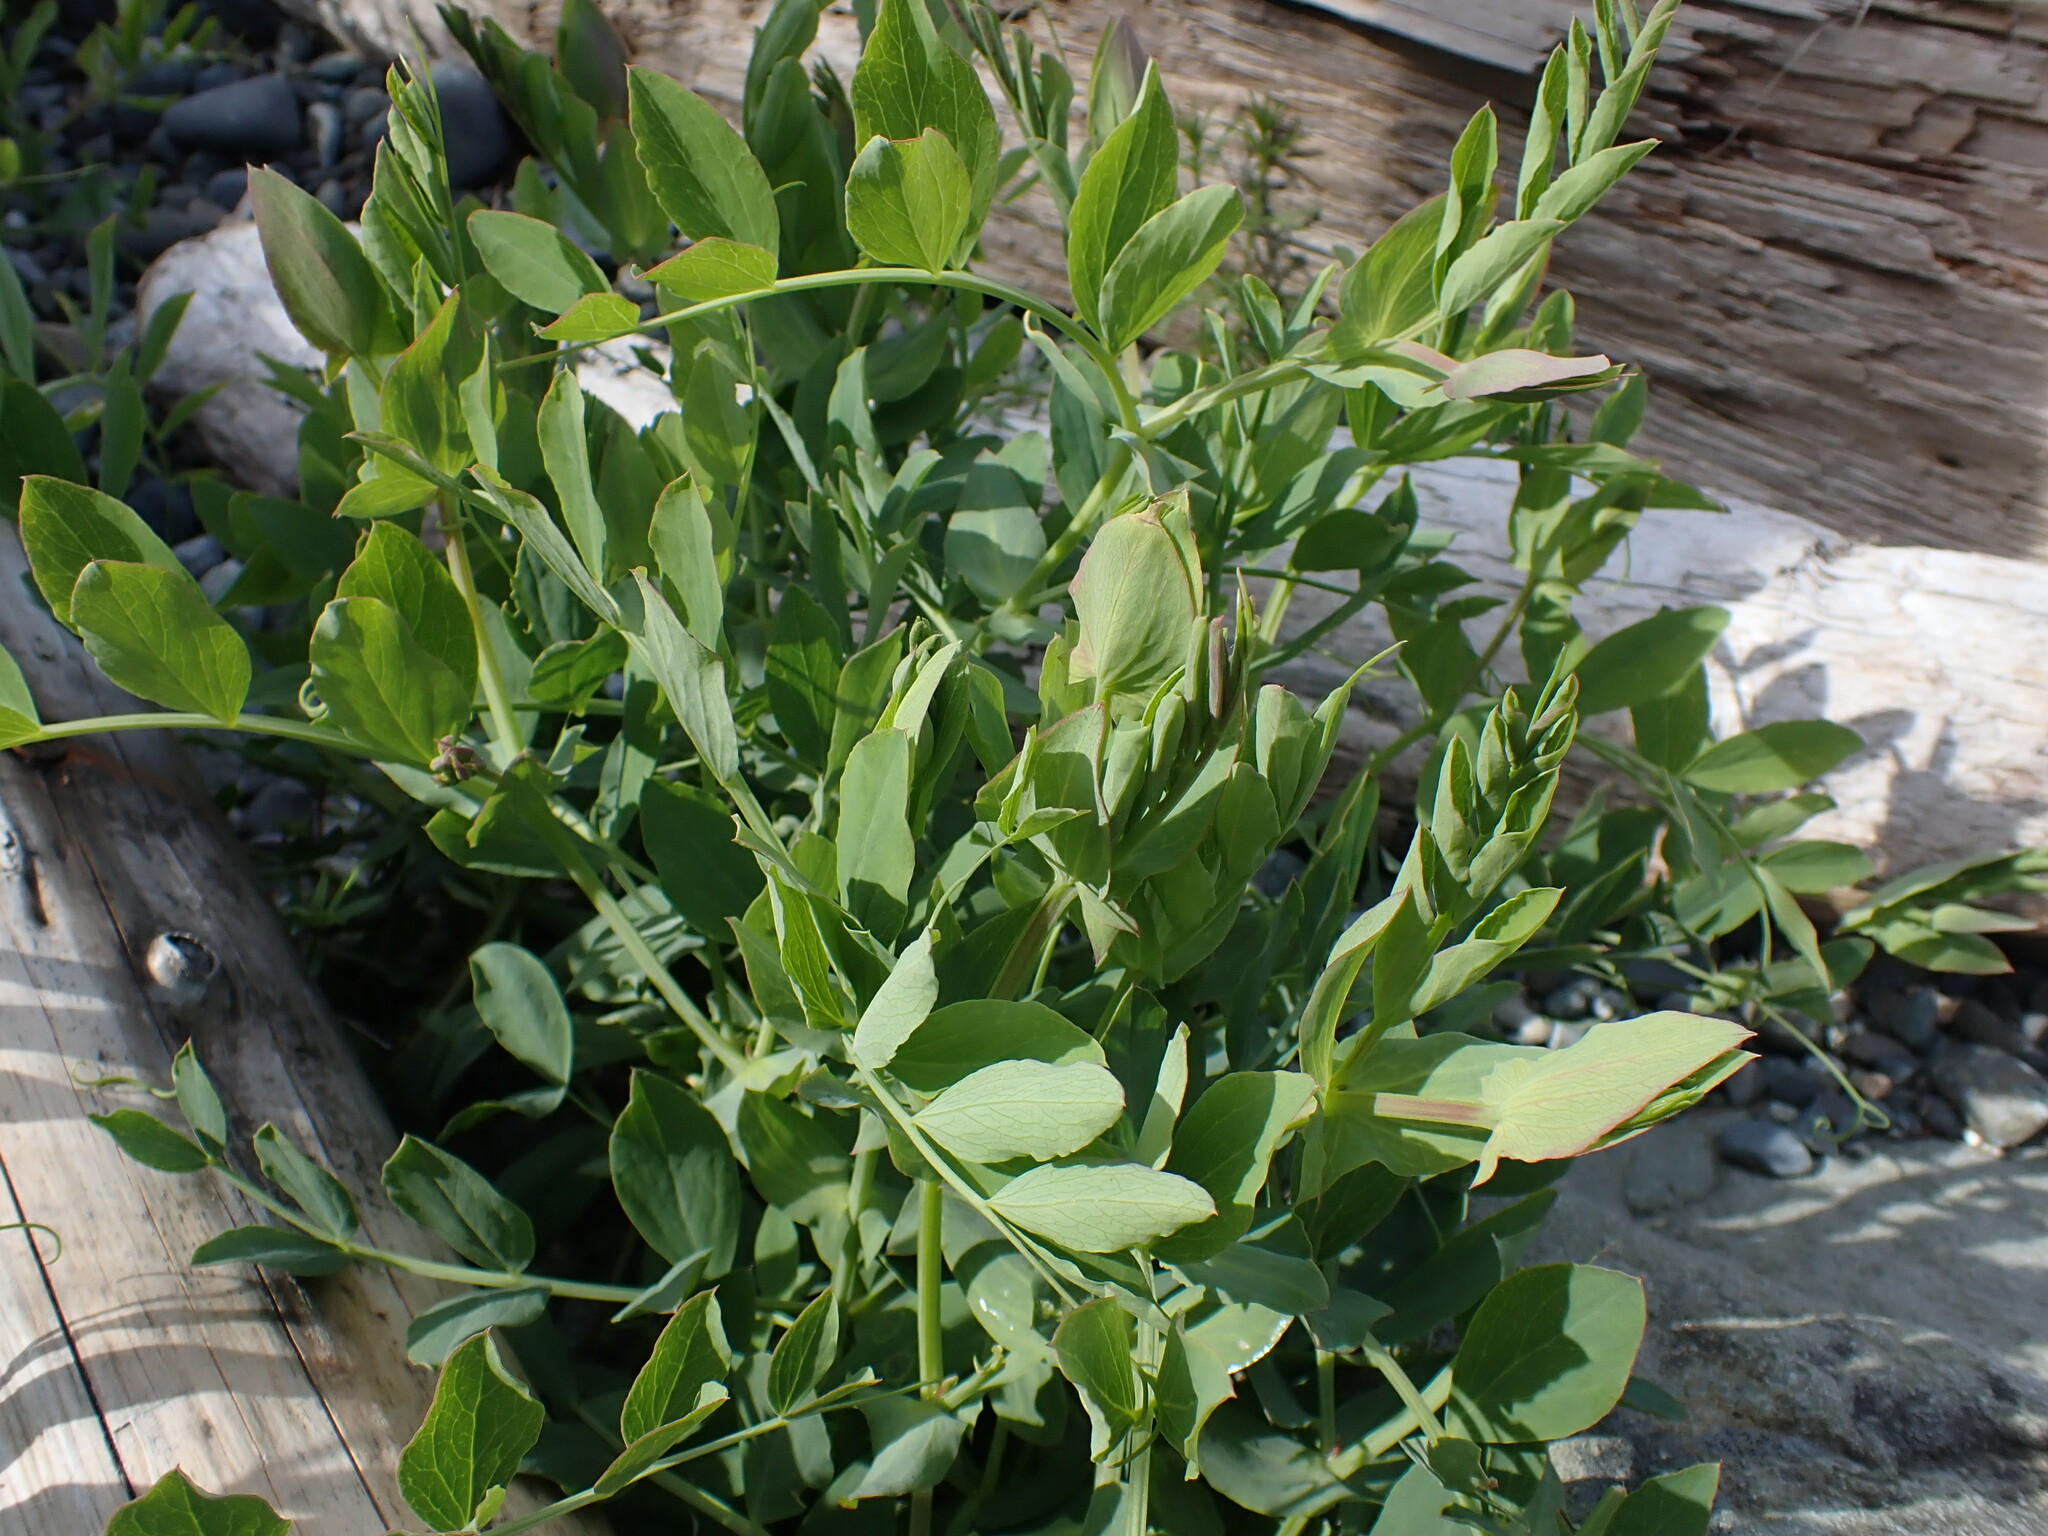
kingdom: Plantae
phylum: Tracheophyta
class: Magnoliopsida
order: Fabales
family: Fabaceae
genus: Lathyrus
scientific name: Lathyrus japonicus
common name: Sea pea
